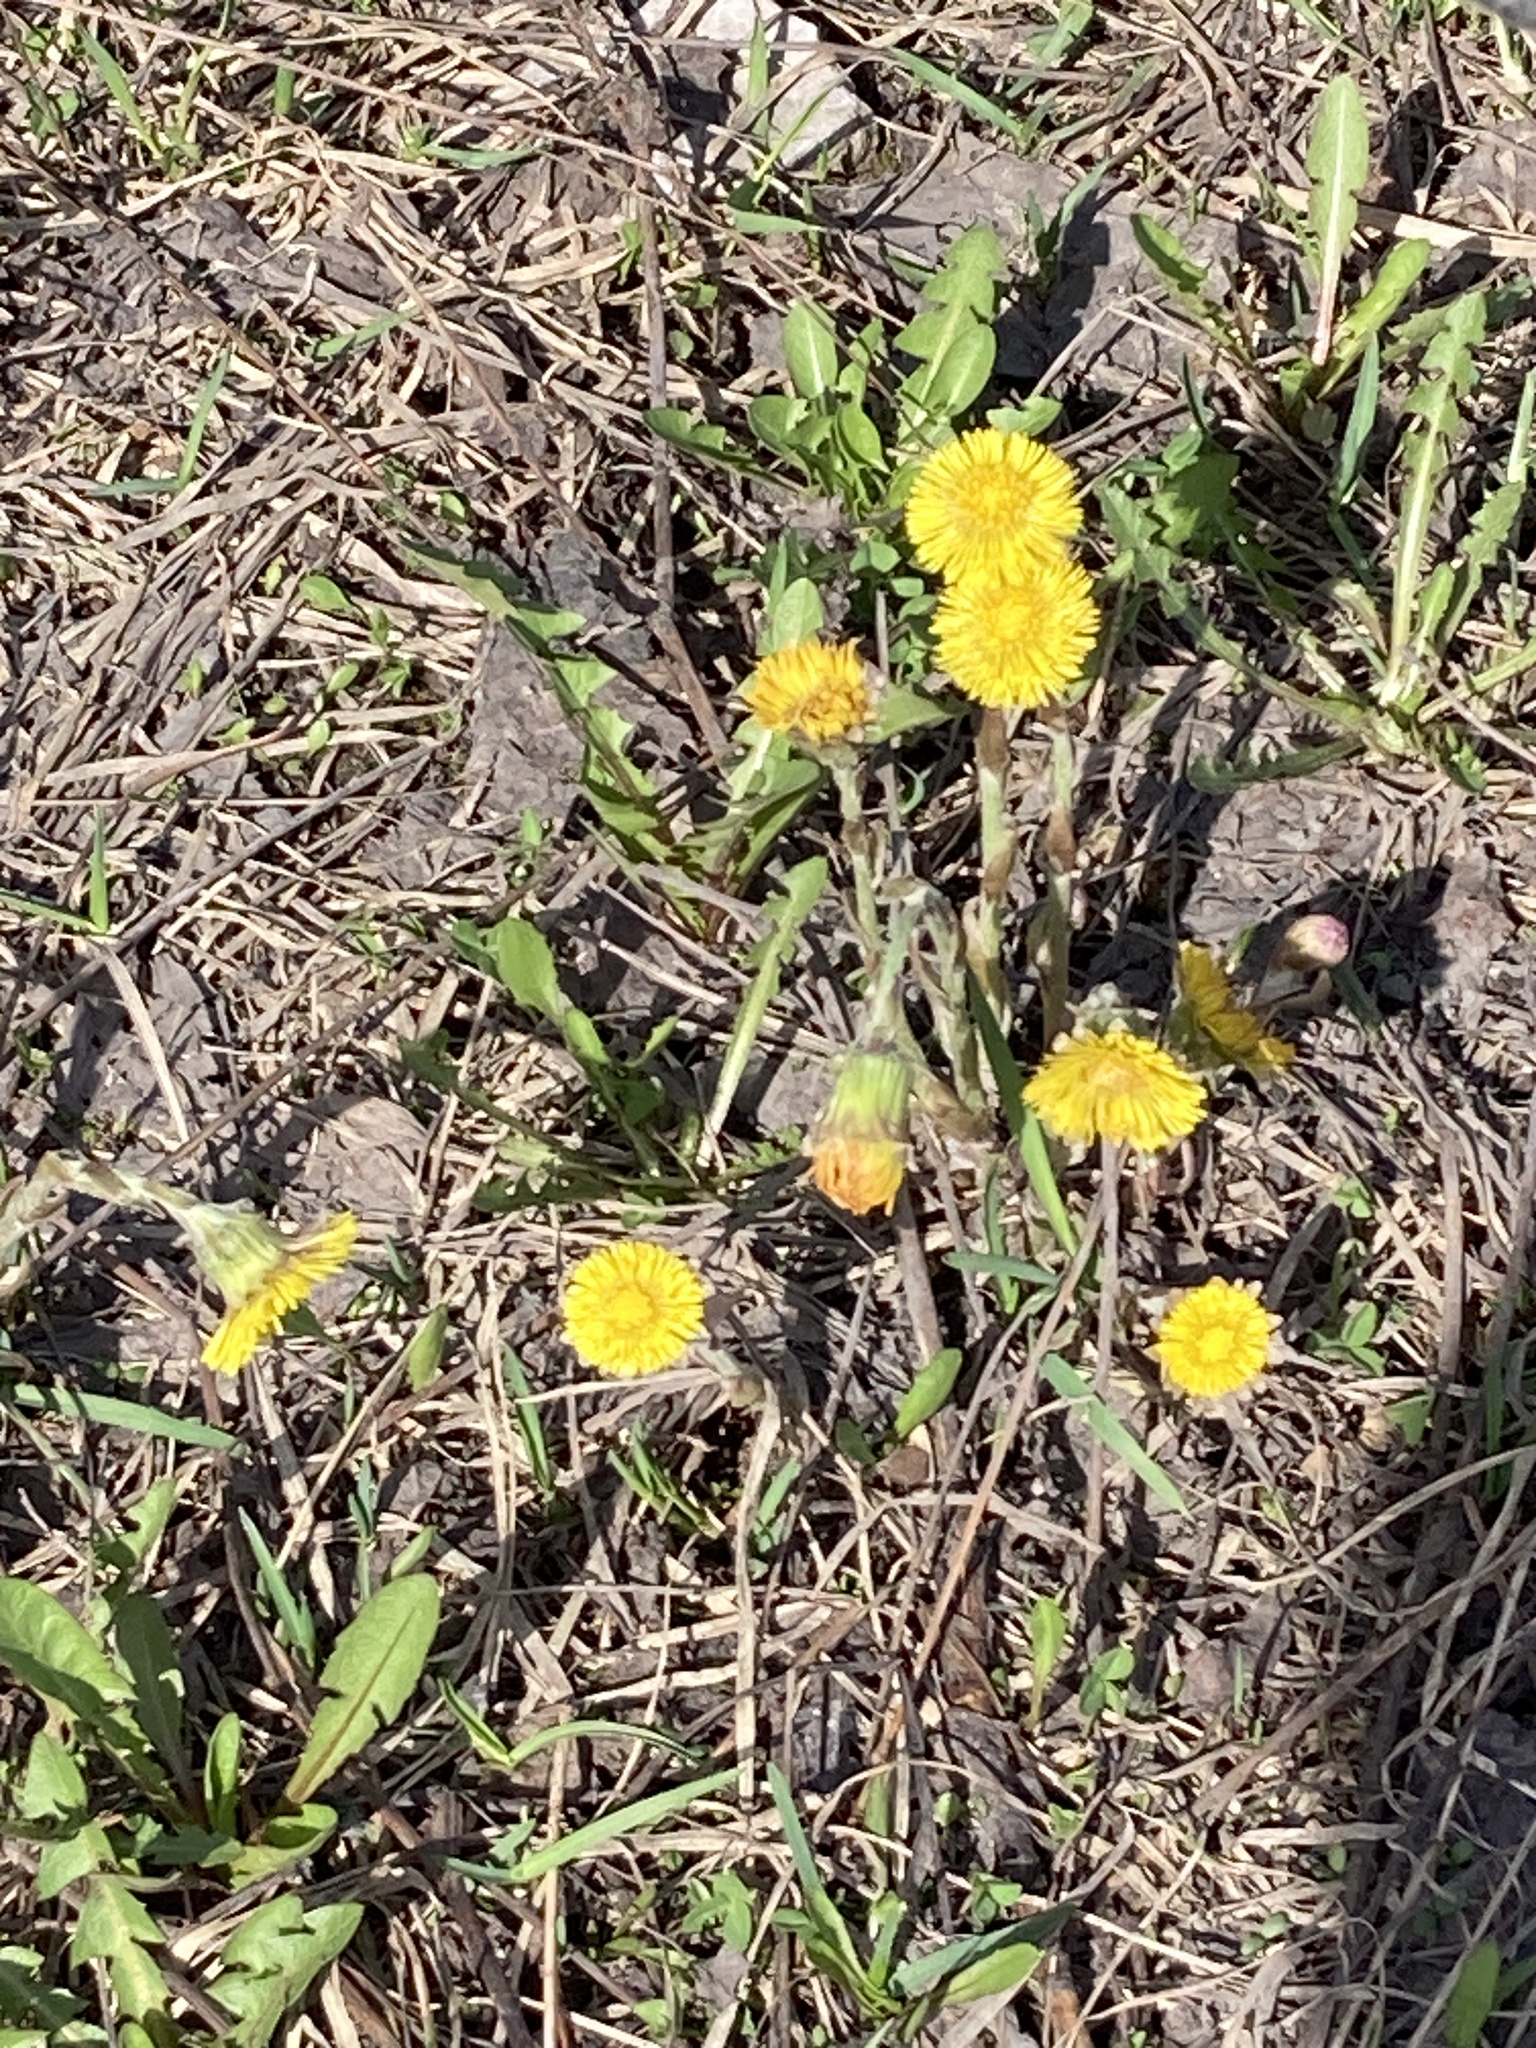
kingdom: Plantae
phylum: Tracheophyta
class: Magnoliopsida
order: Asterales
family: Asteraceae
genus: Tussilago
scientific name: Tussilago farfara
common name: Coltsfoot
